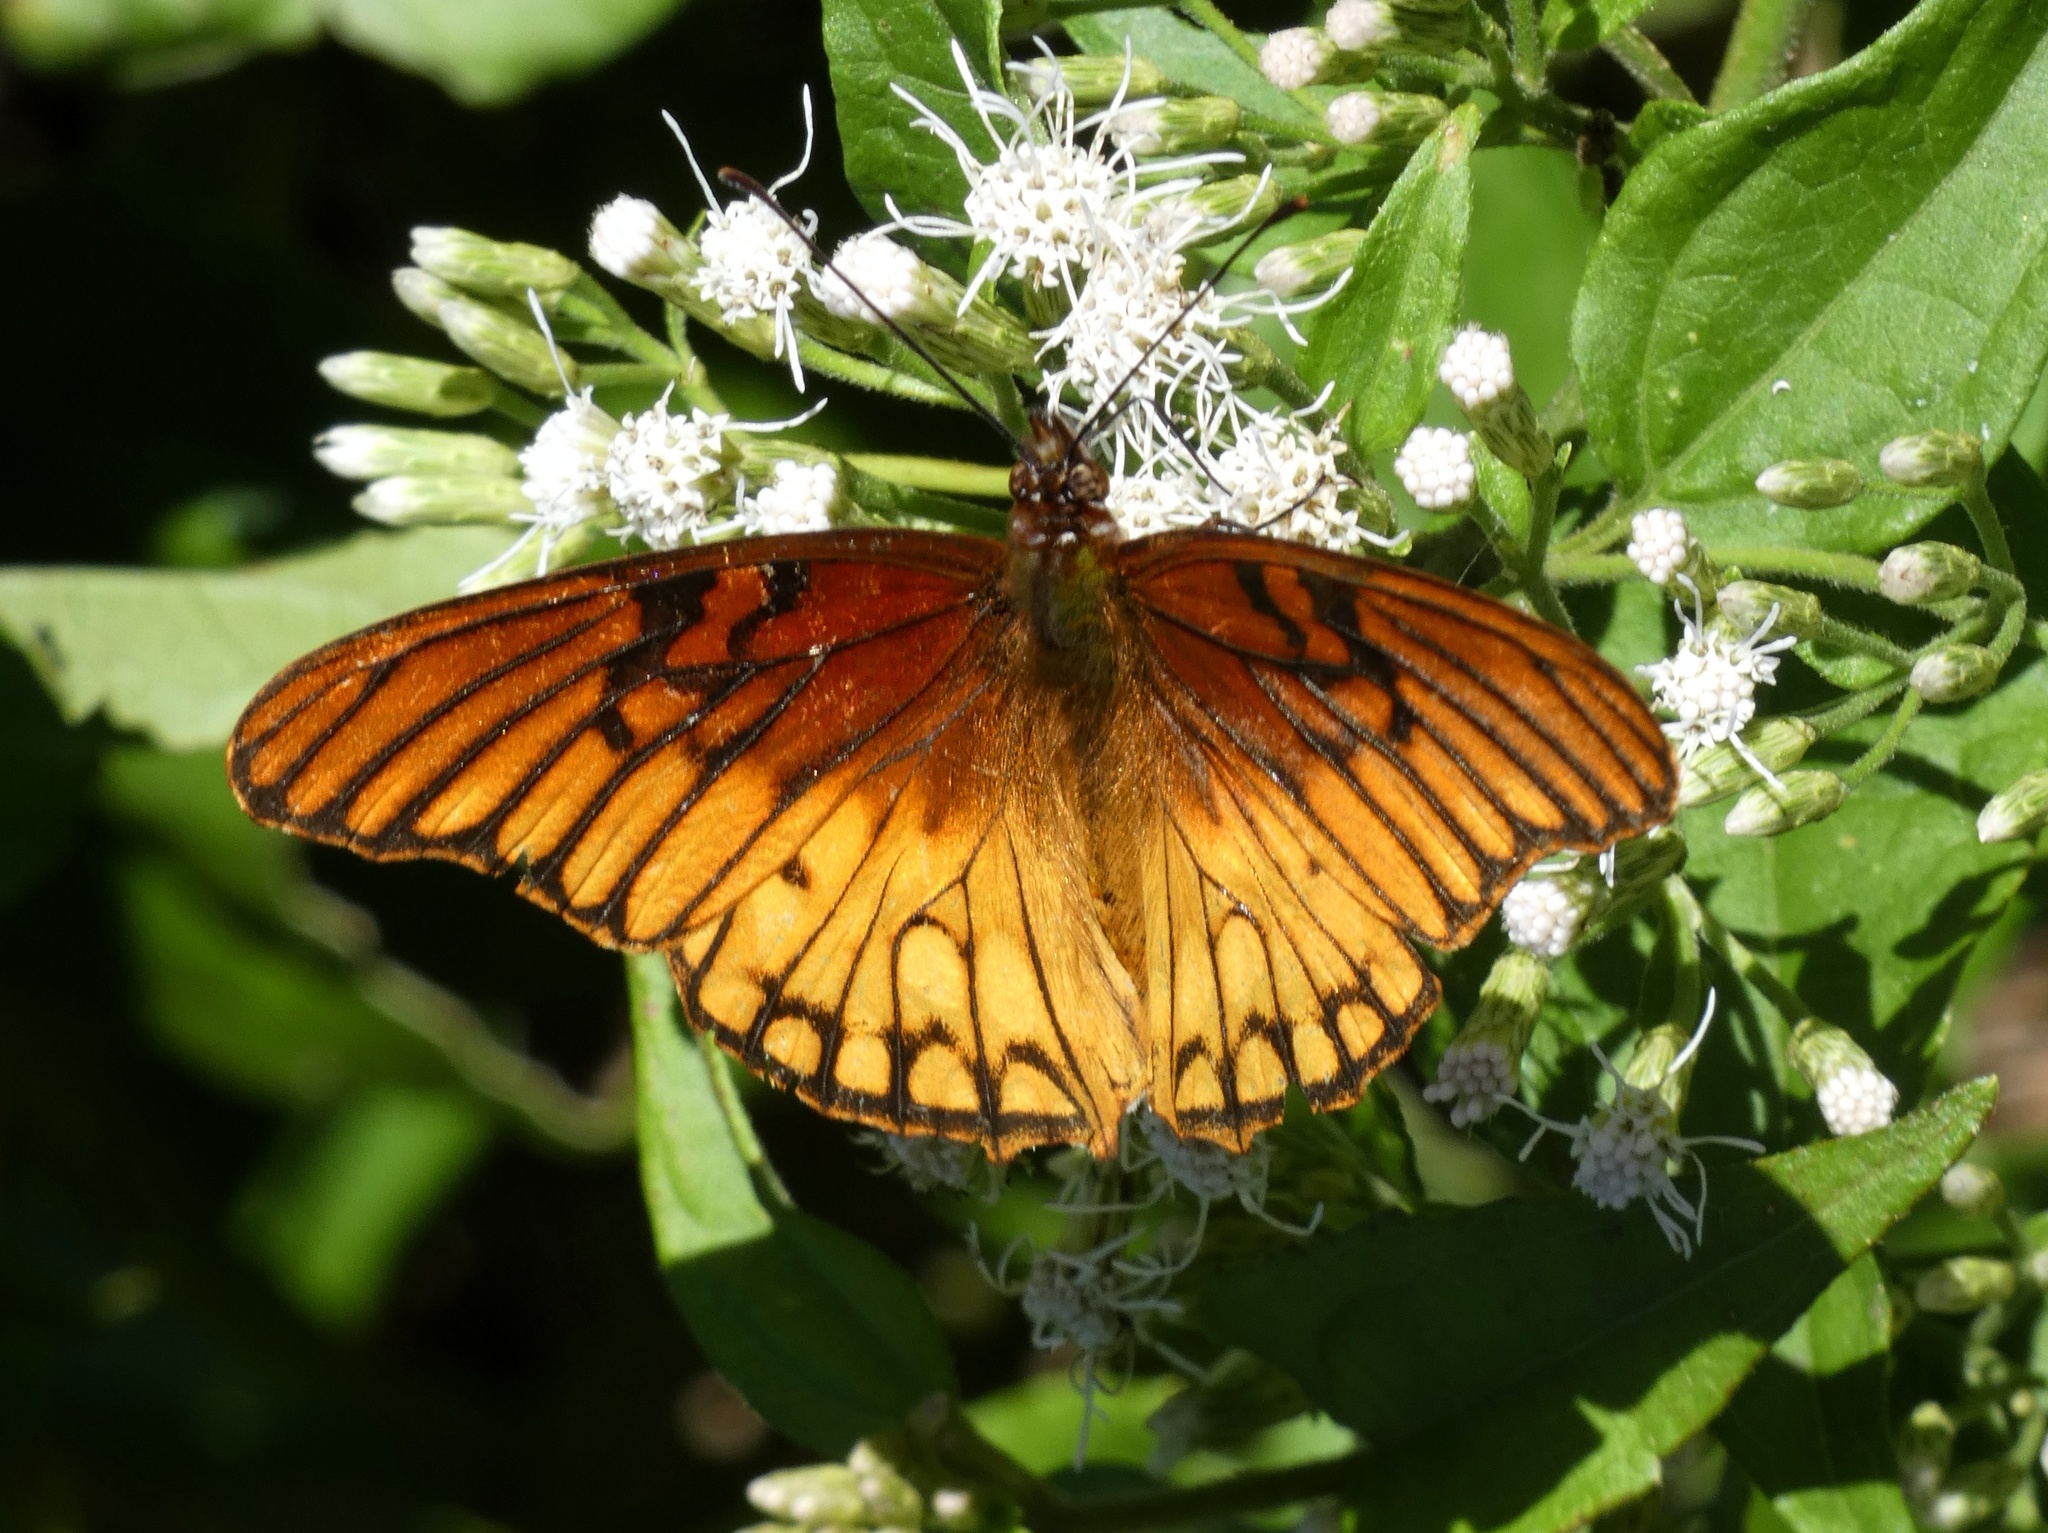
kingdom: Animalia
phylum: Arthropoda
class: Insecta
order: Lepidoptera
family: Nymphalidae
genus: Dione
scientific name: Dione moneta
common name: Mexican silverspot
